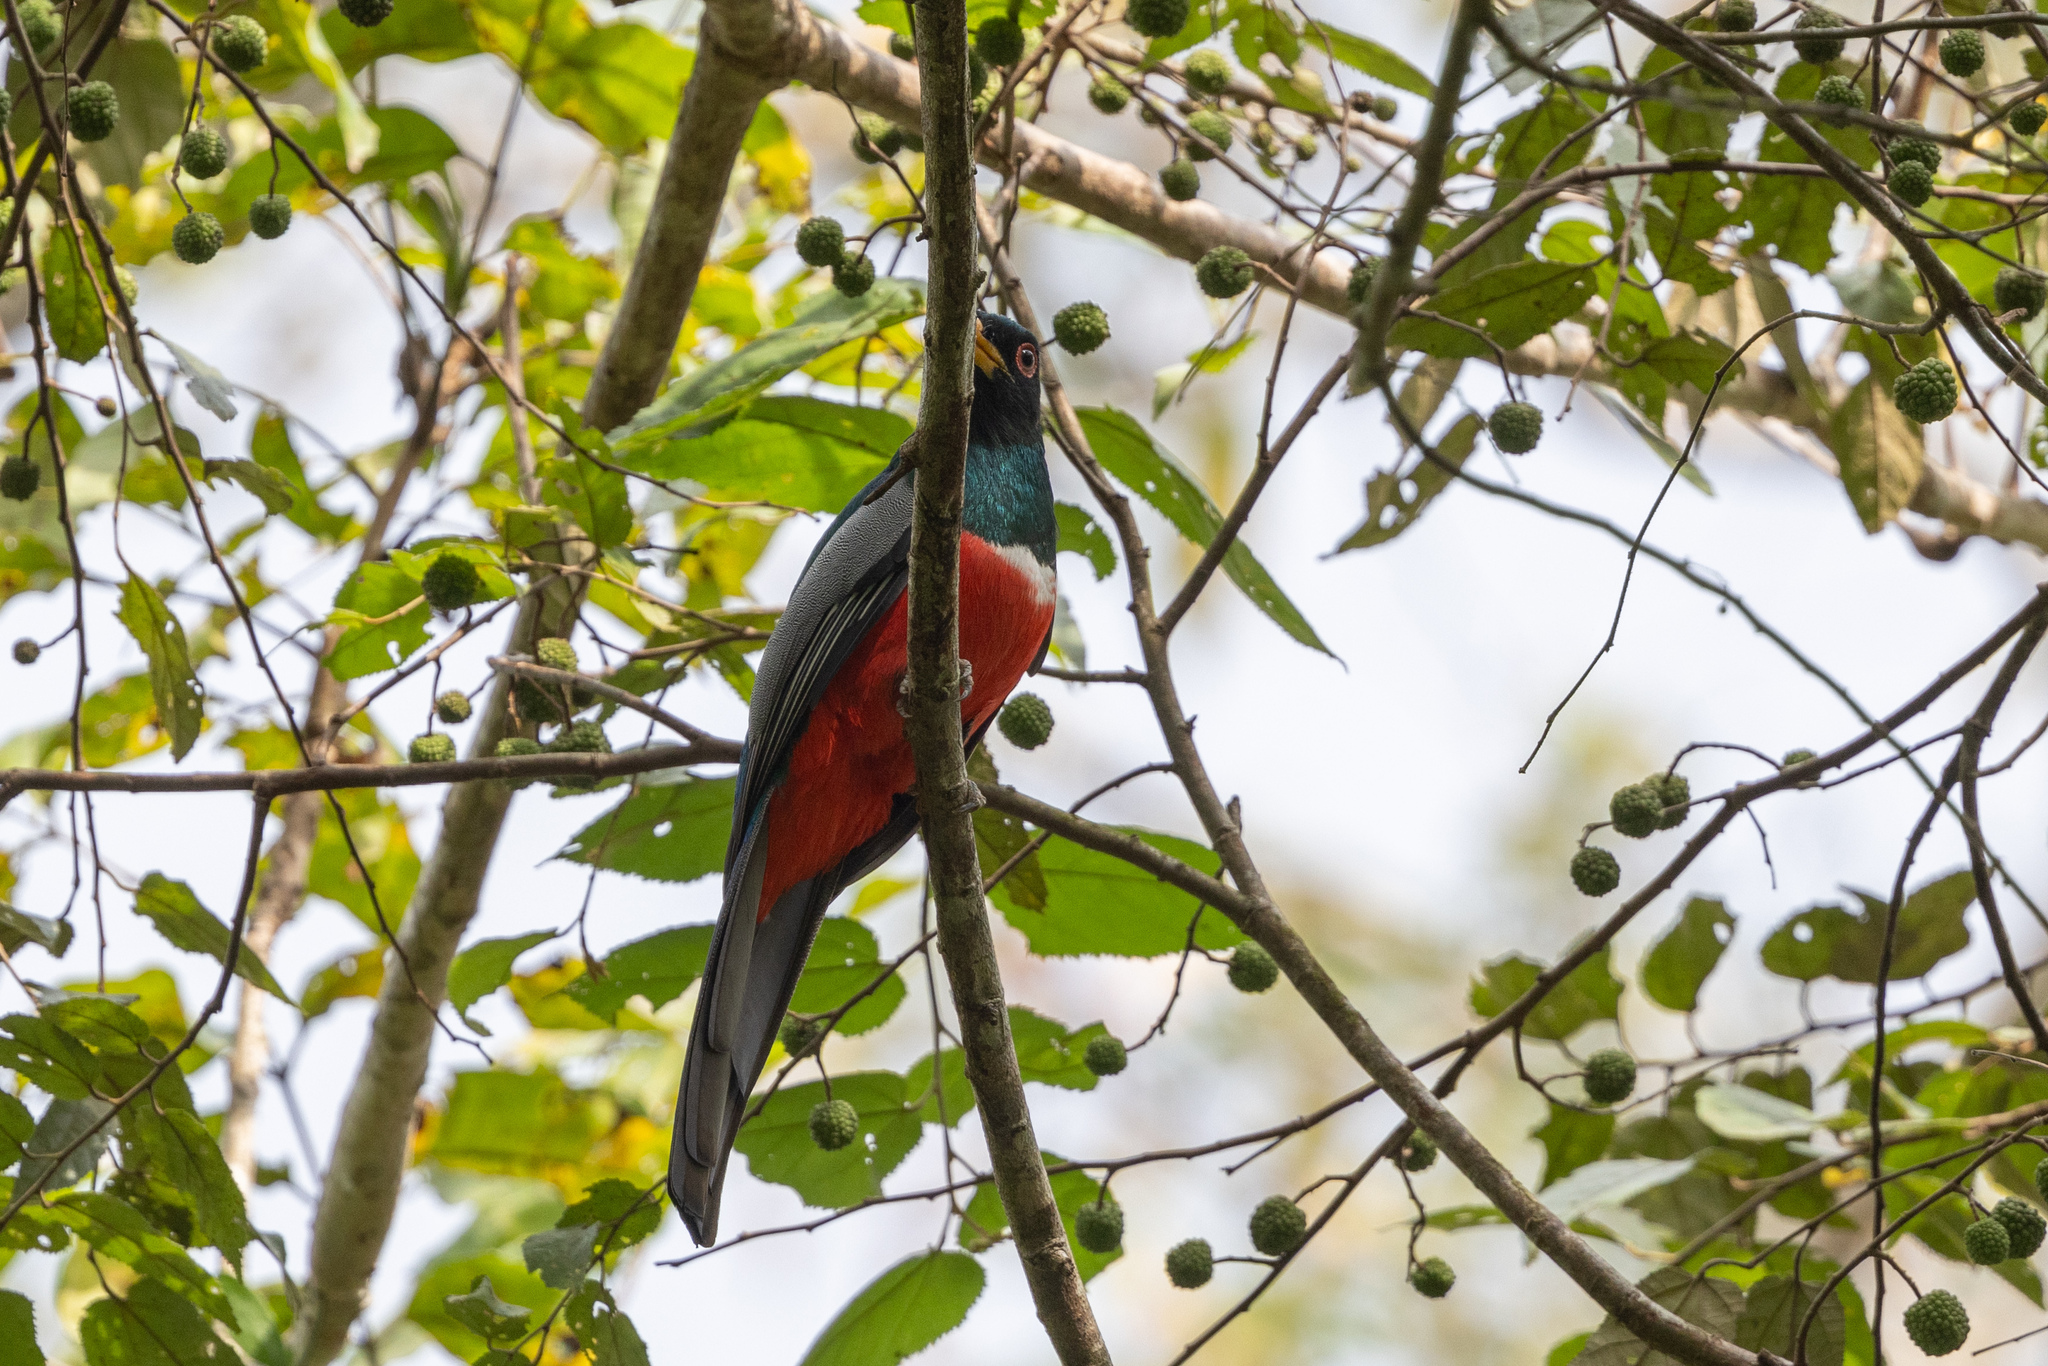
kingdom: Animalia
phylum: Chordata
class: Aves
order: Trogoniformes
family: Trogonidae
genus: Trogon
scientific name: Trogon melanurus
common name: Black-tailed trogon
